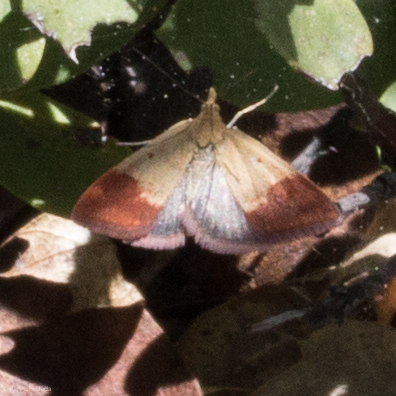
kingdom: Animalia
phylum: Arthropoda
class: Insecta
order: Lepidoptera
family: Crambidae
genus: Pyrausta
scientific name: Pyrausta semirubralis
